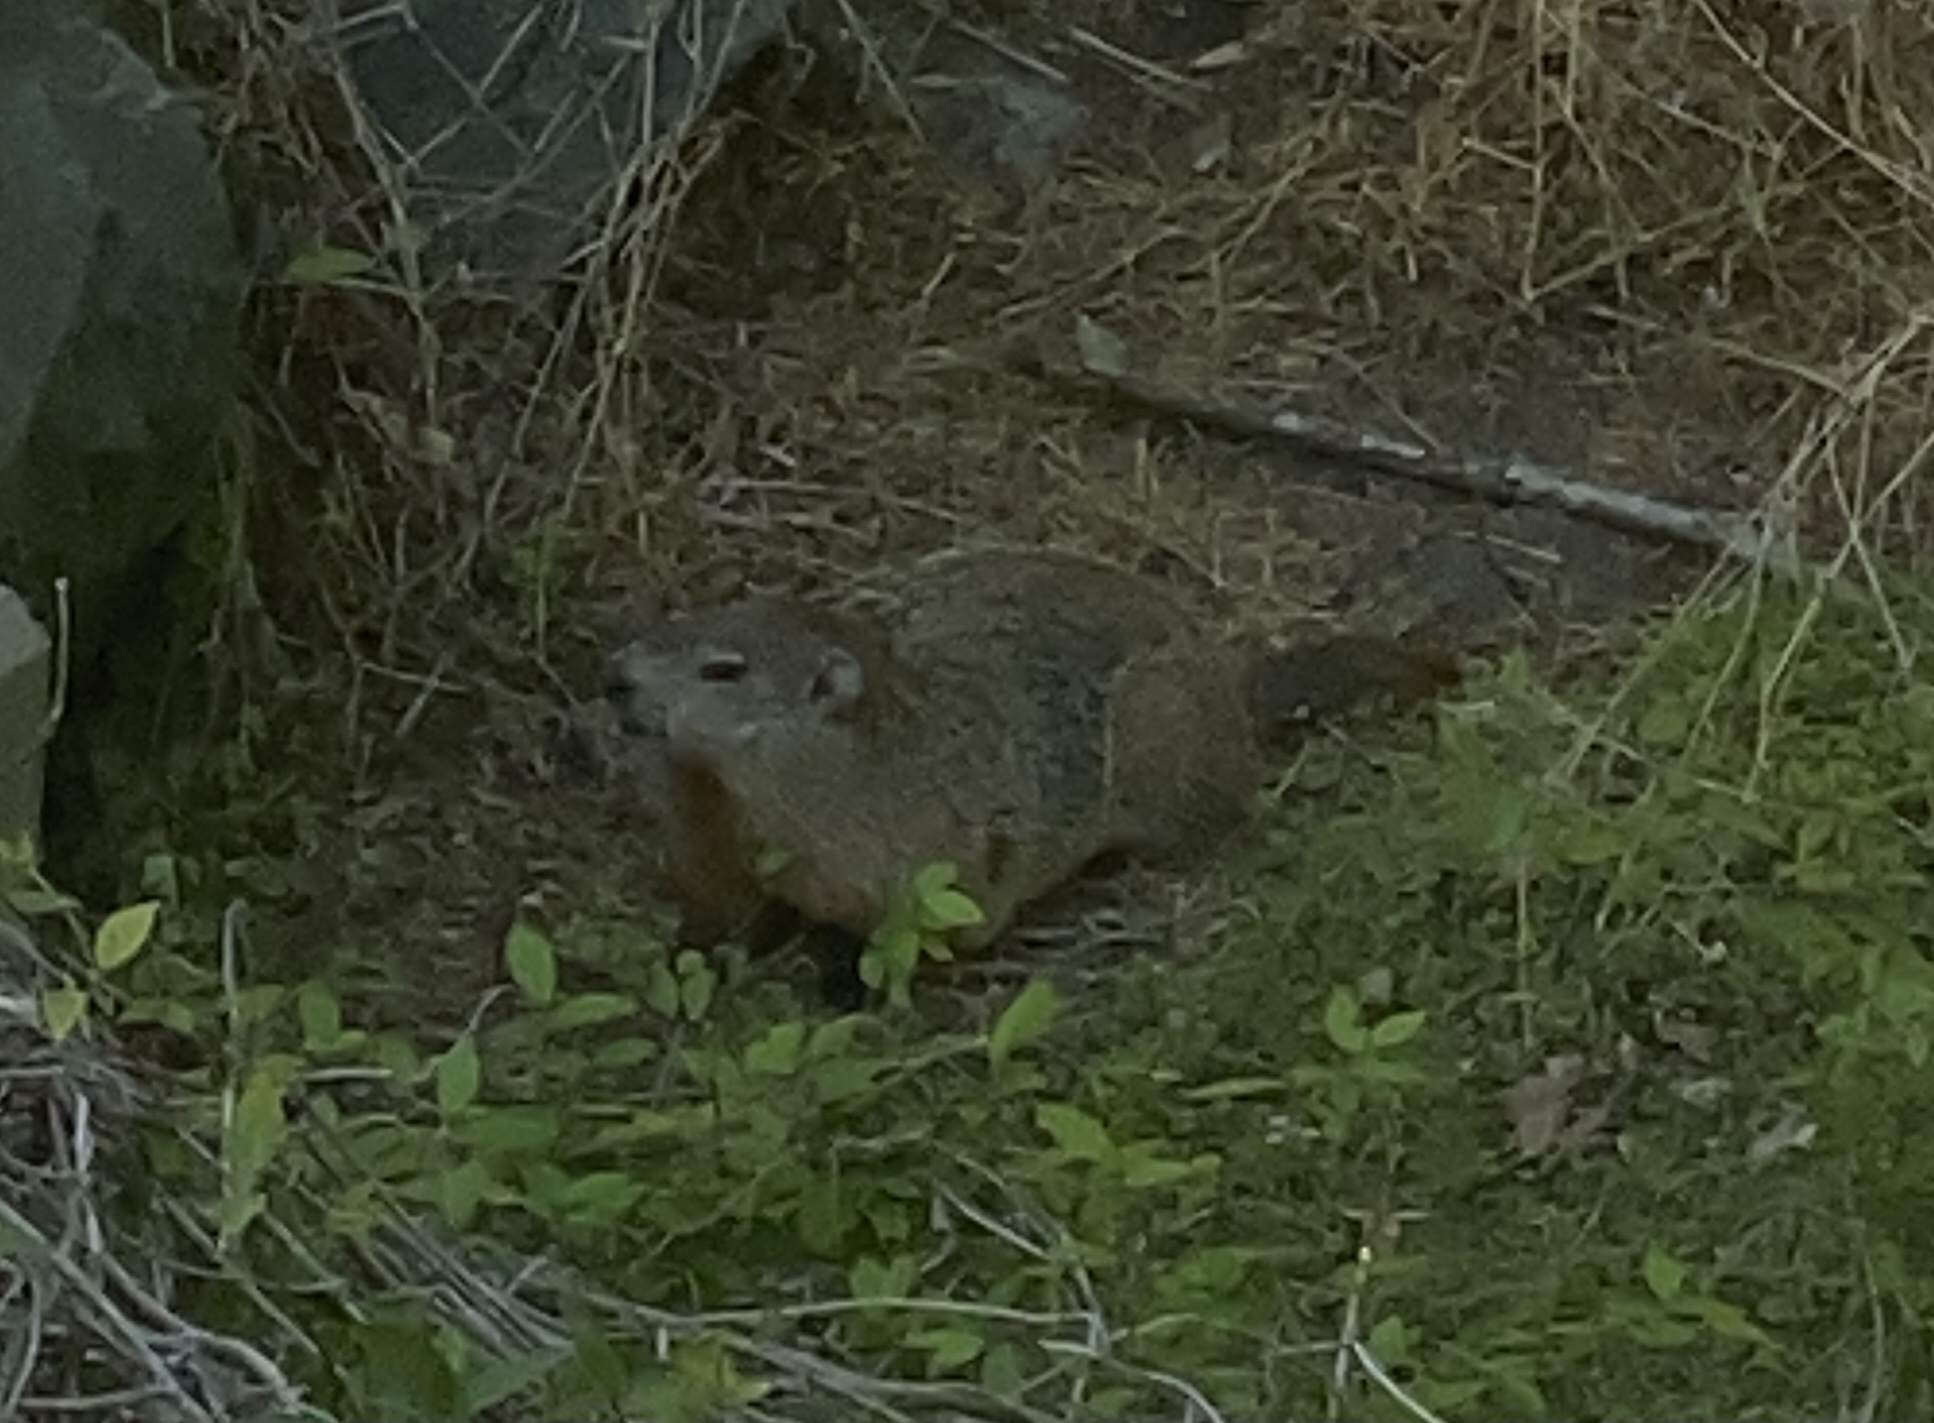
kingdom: Animalia
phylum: Chordata
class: Mammalia
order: Rodentia
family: Sciuridae
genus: Marmota
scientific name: Marmota monax
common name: Groundhog
